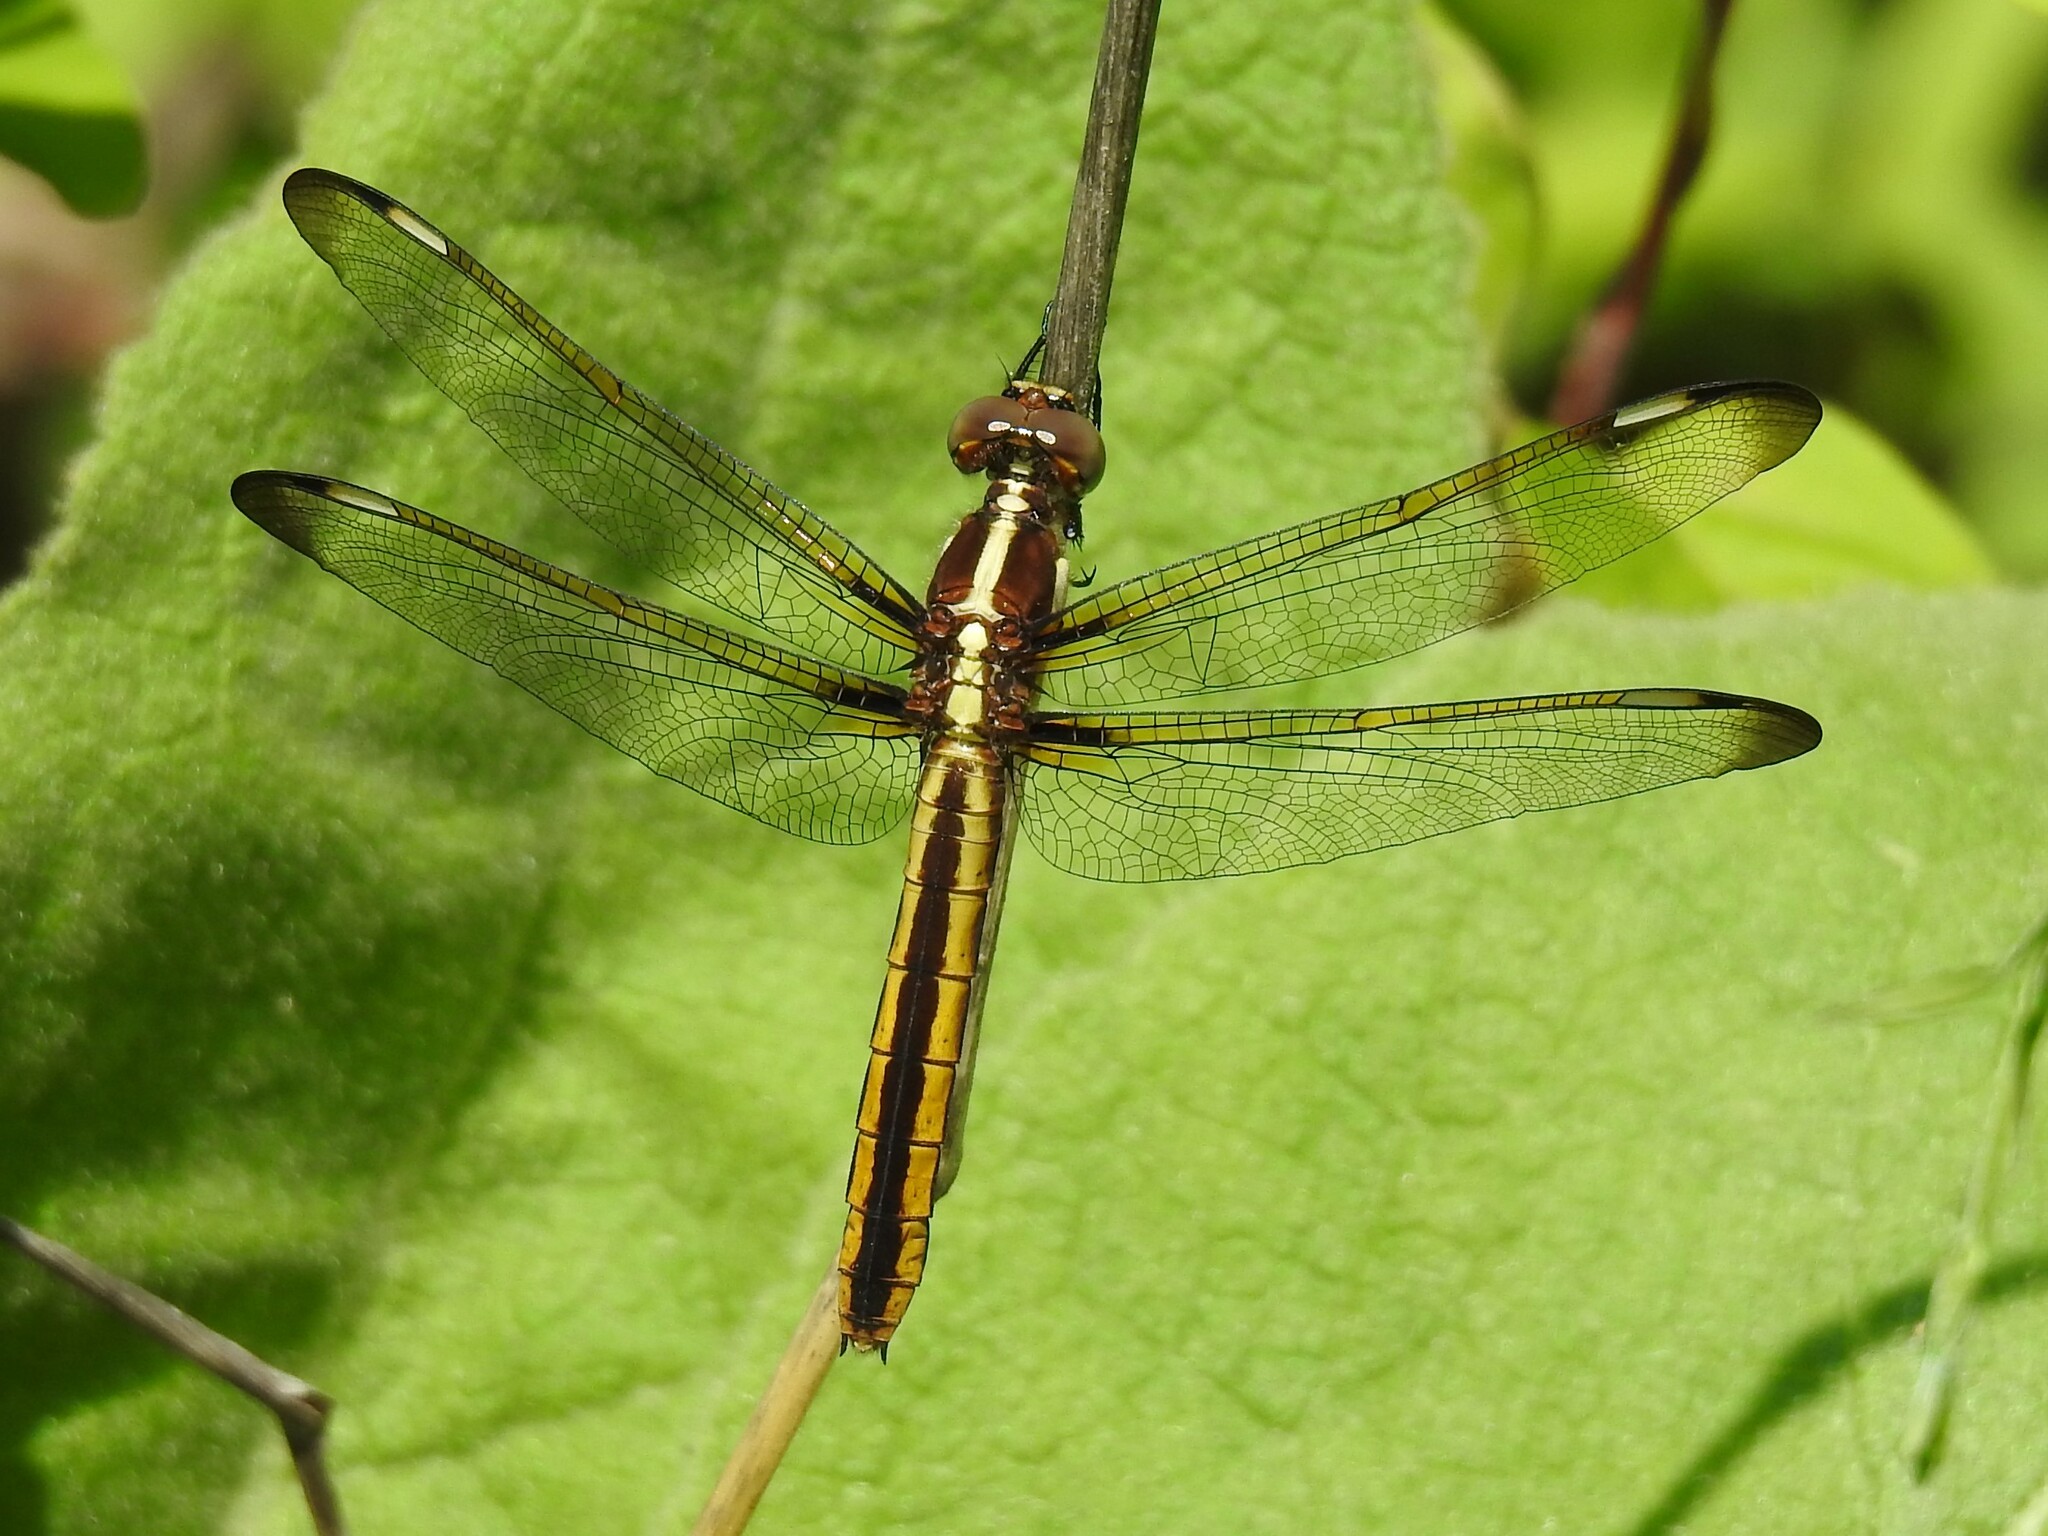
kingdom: Animalia
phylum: Arthropoda
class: Insecta
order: Odonata
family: Libellulidae
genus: Libellula
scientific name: Libellula cyanea
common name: Spangled skimmer
